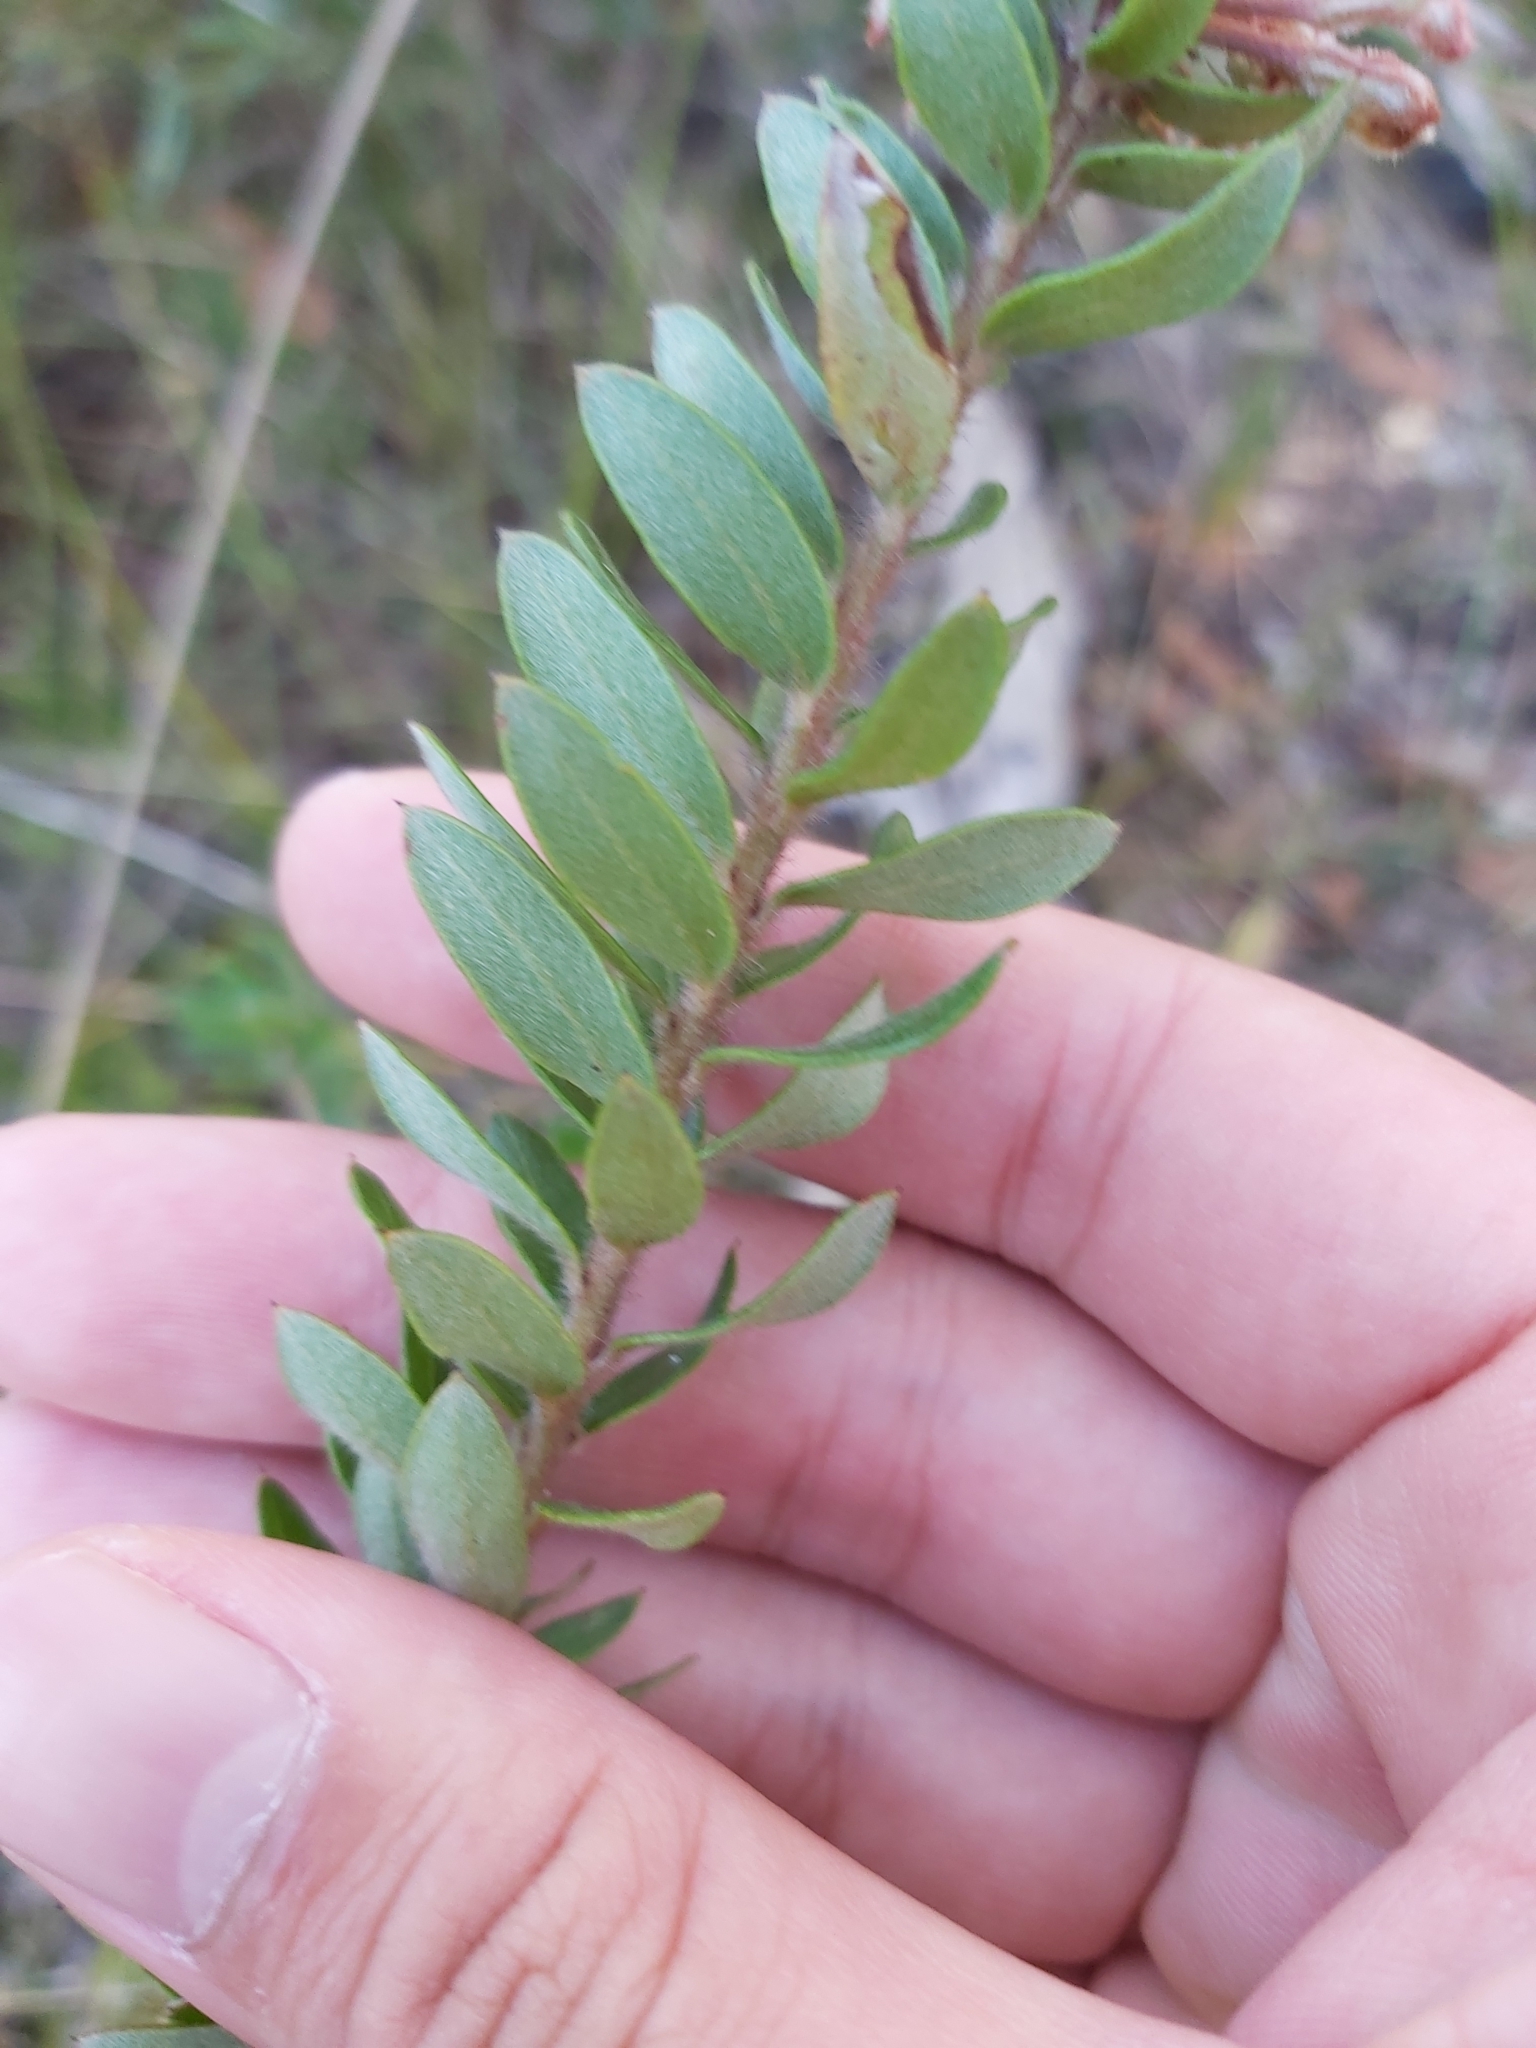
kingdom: Plantae
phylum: Tracheophyta
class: Magnoliopsida
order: Proteales
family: Proteaceae
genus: Grevillea
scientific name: Grevillea buxifolia
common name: Grey spiderflower
